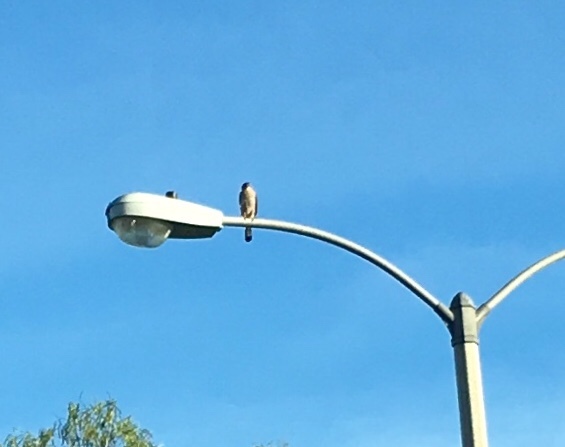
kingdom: Animalia
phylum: Chordata
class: Aves
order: Accipitriformes
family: Accipitridae
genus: Accipiter
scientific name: Accipiter cooperii
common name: Cooper's hawk
